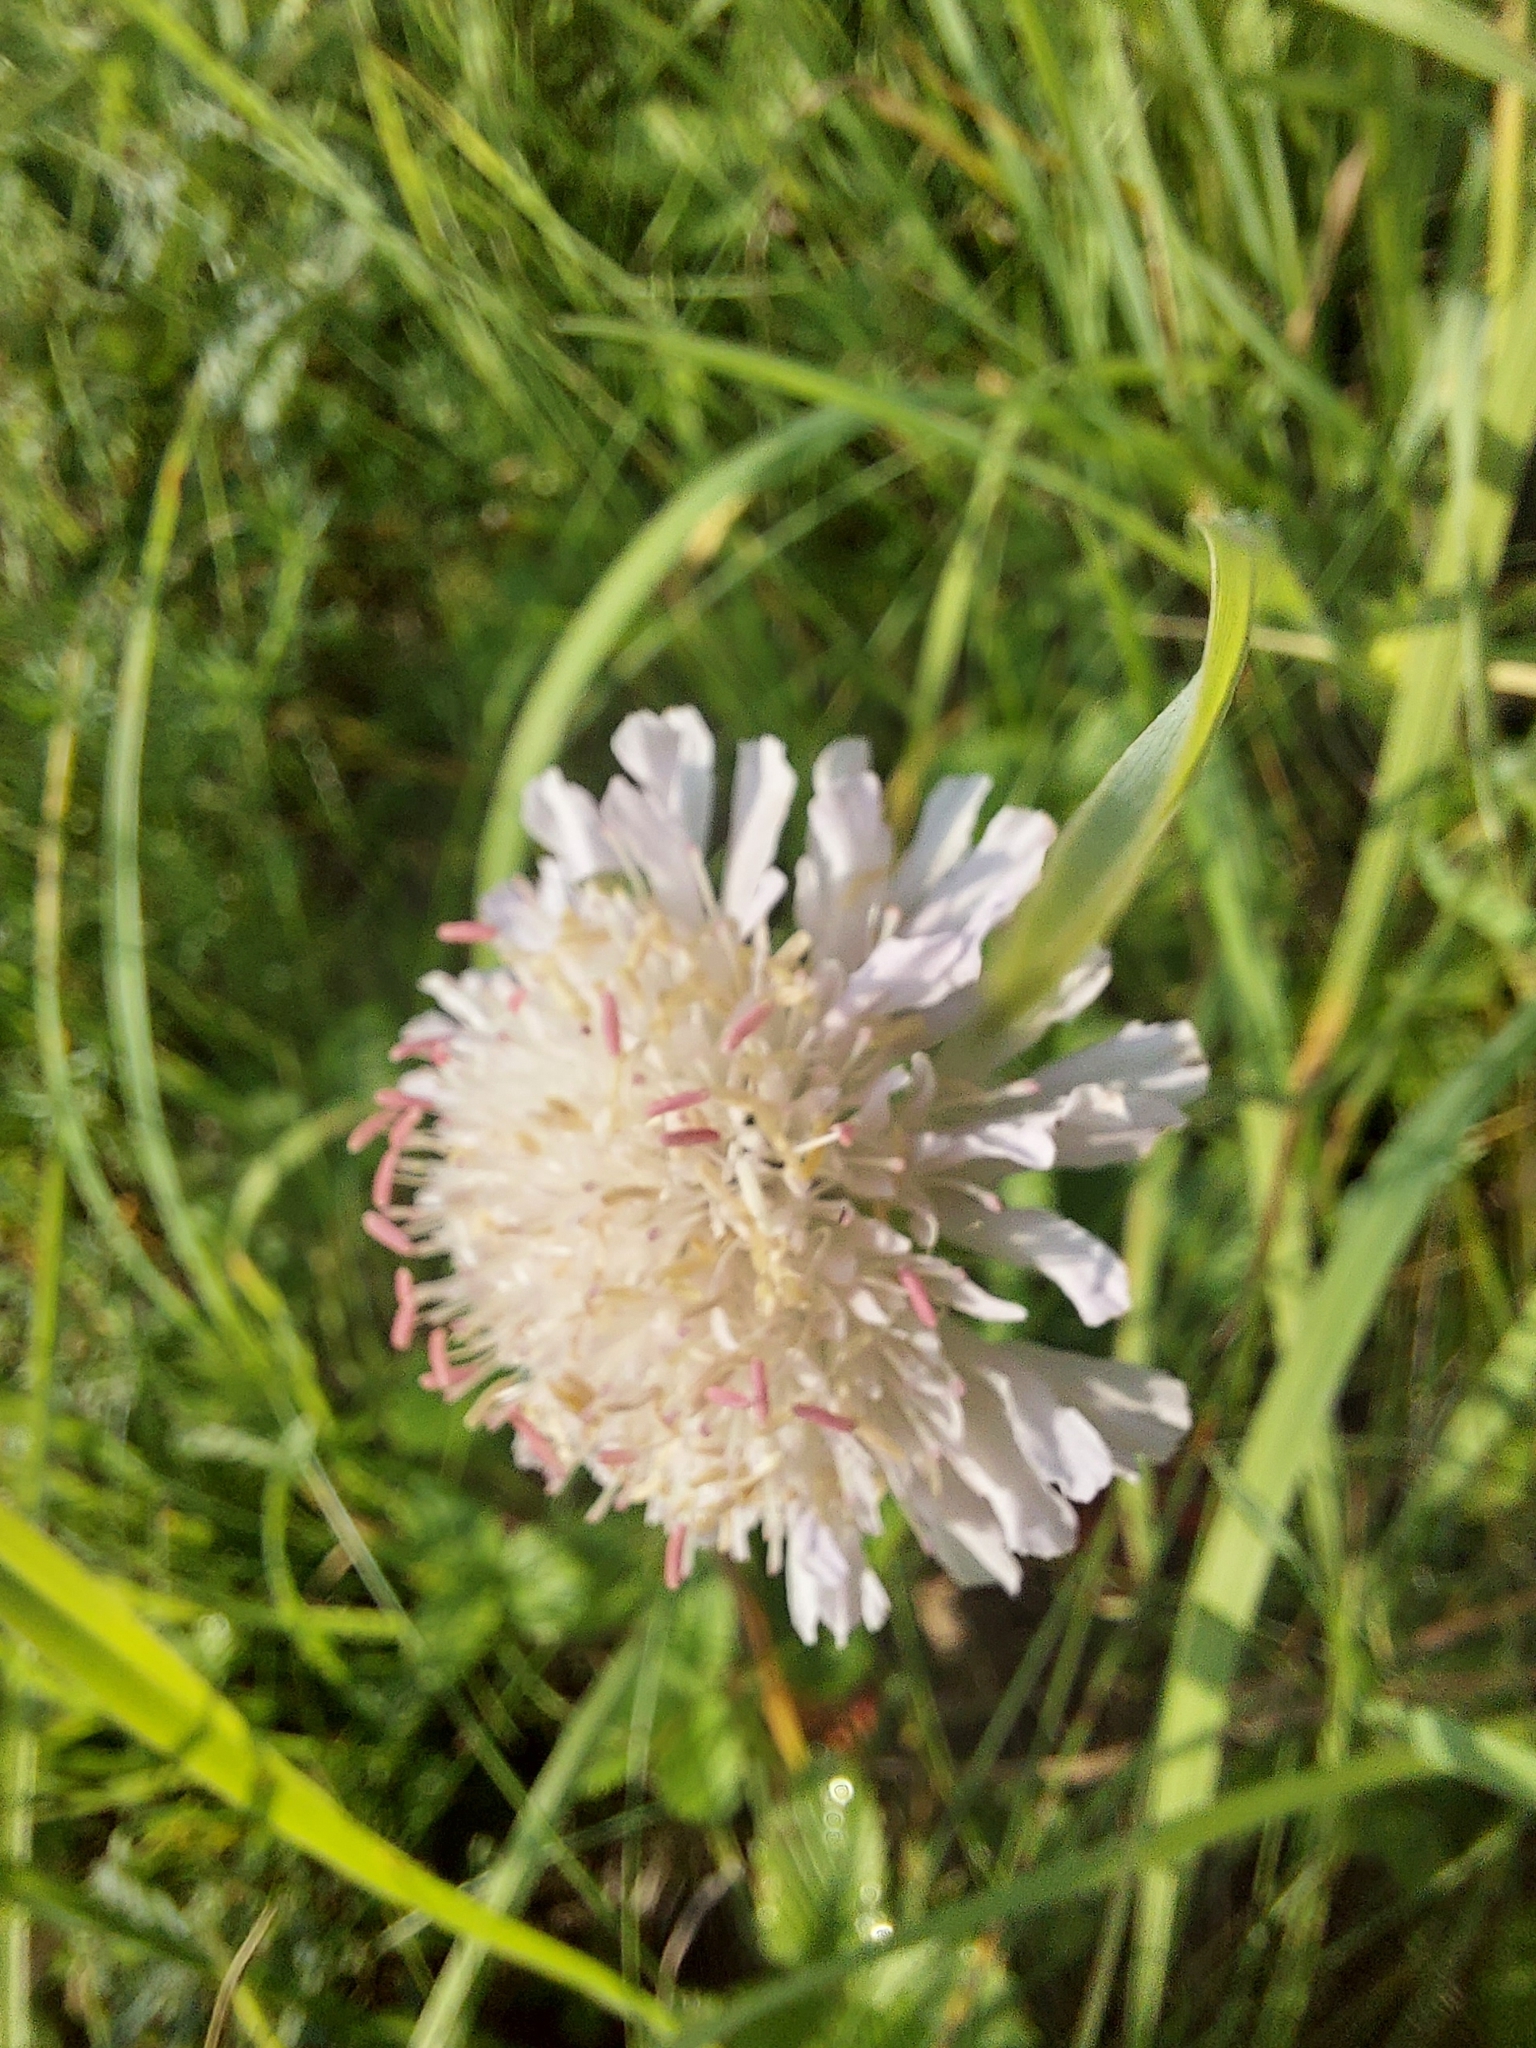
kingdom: Plantae
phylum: Tracheophyta
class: Magnoliopsida
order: Dipsacales
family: Caprifoliaceae
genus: Knautia
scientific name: Knautia arvensis
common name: Field scabiosa
